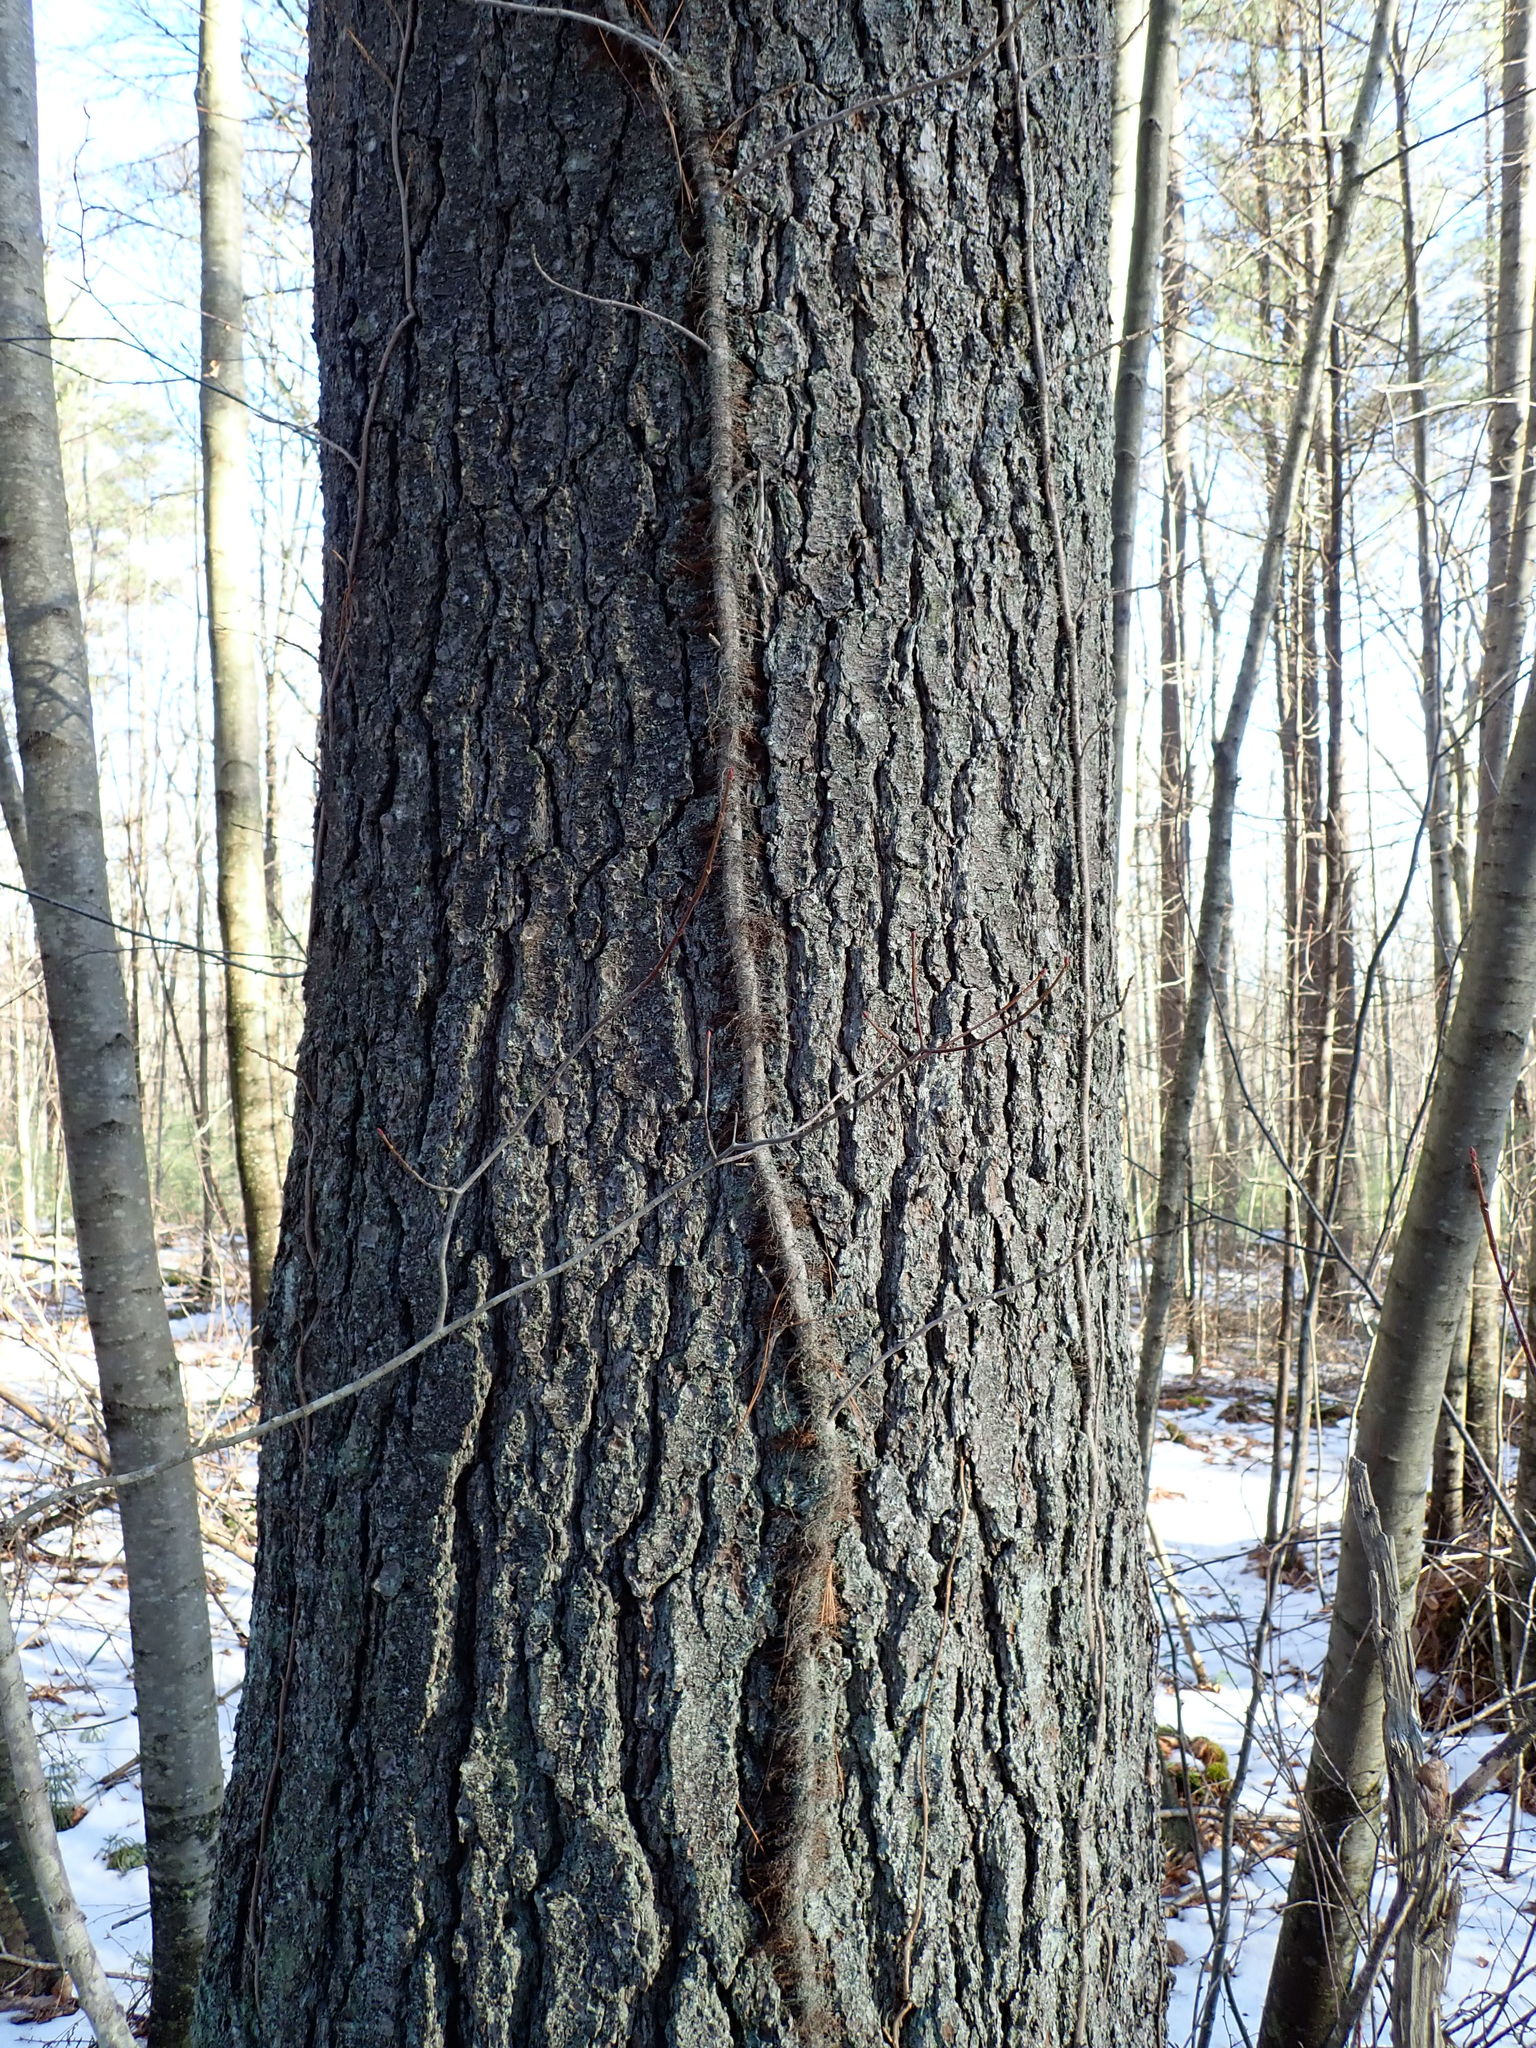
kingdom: Plantae
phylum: Tracheophyta
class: Magnoliopsida
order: Sapindales
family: Anacardiaceae
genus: Toxicodendron
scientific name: Toxicodendron radicans
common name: Poison ivy
